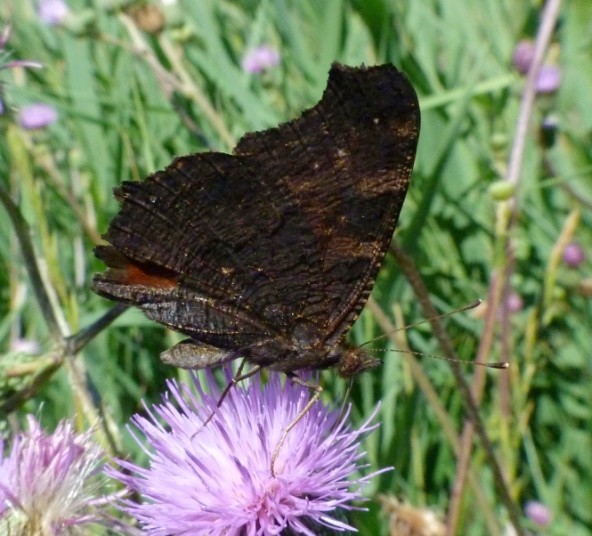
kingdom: Animalia
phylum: Arthropoda
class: Insecta
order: Lepidoptera
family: Nymphalidae
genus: Aglais
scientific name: Aglais io
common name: Peacock
